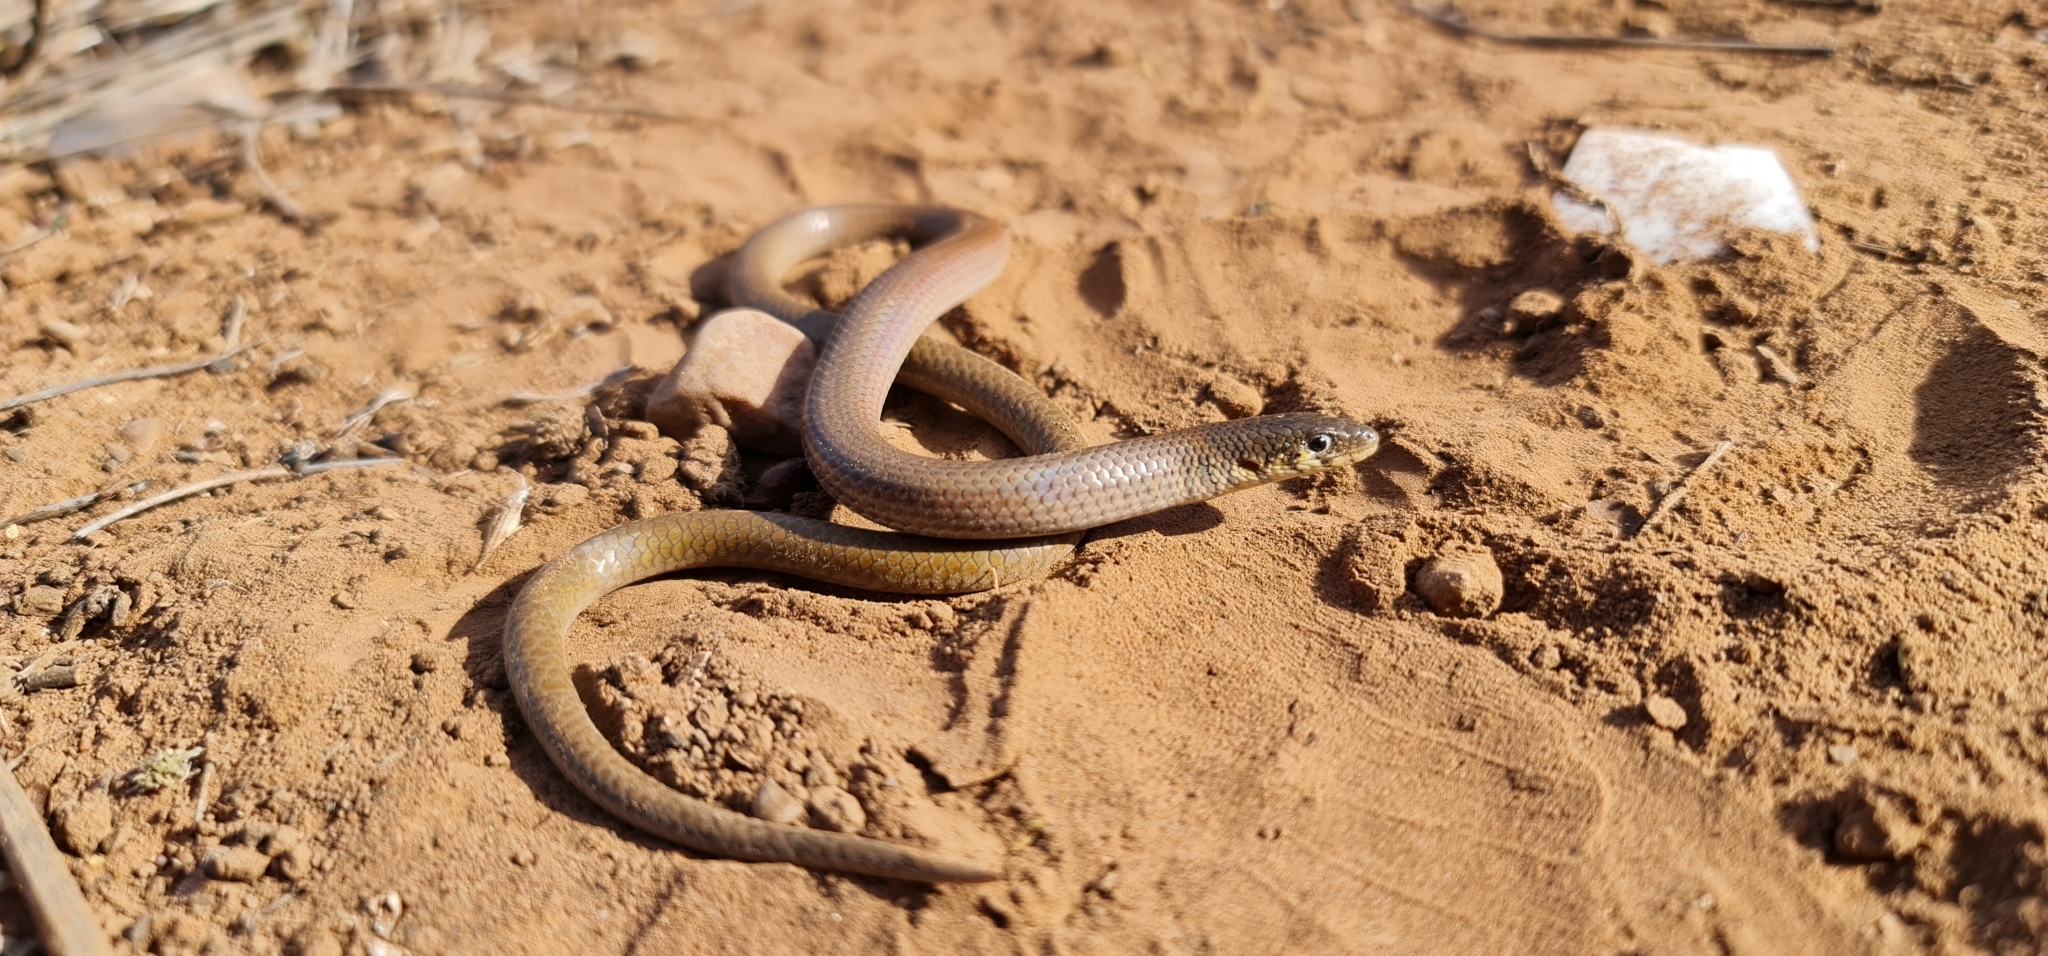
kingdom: Animalia
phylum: Chordata
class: Squamata
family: Pygopodidae
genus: Delma
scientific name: Delma molleri
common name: Gulfs delma
